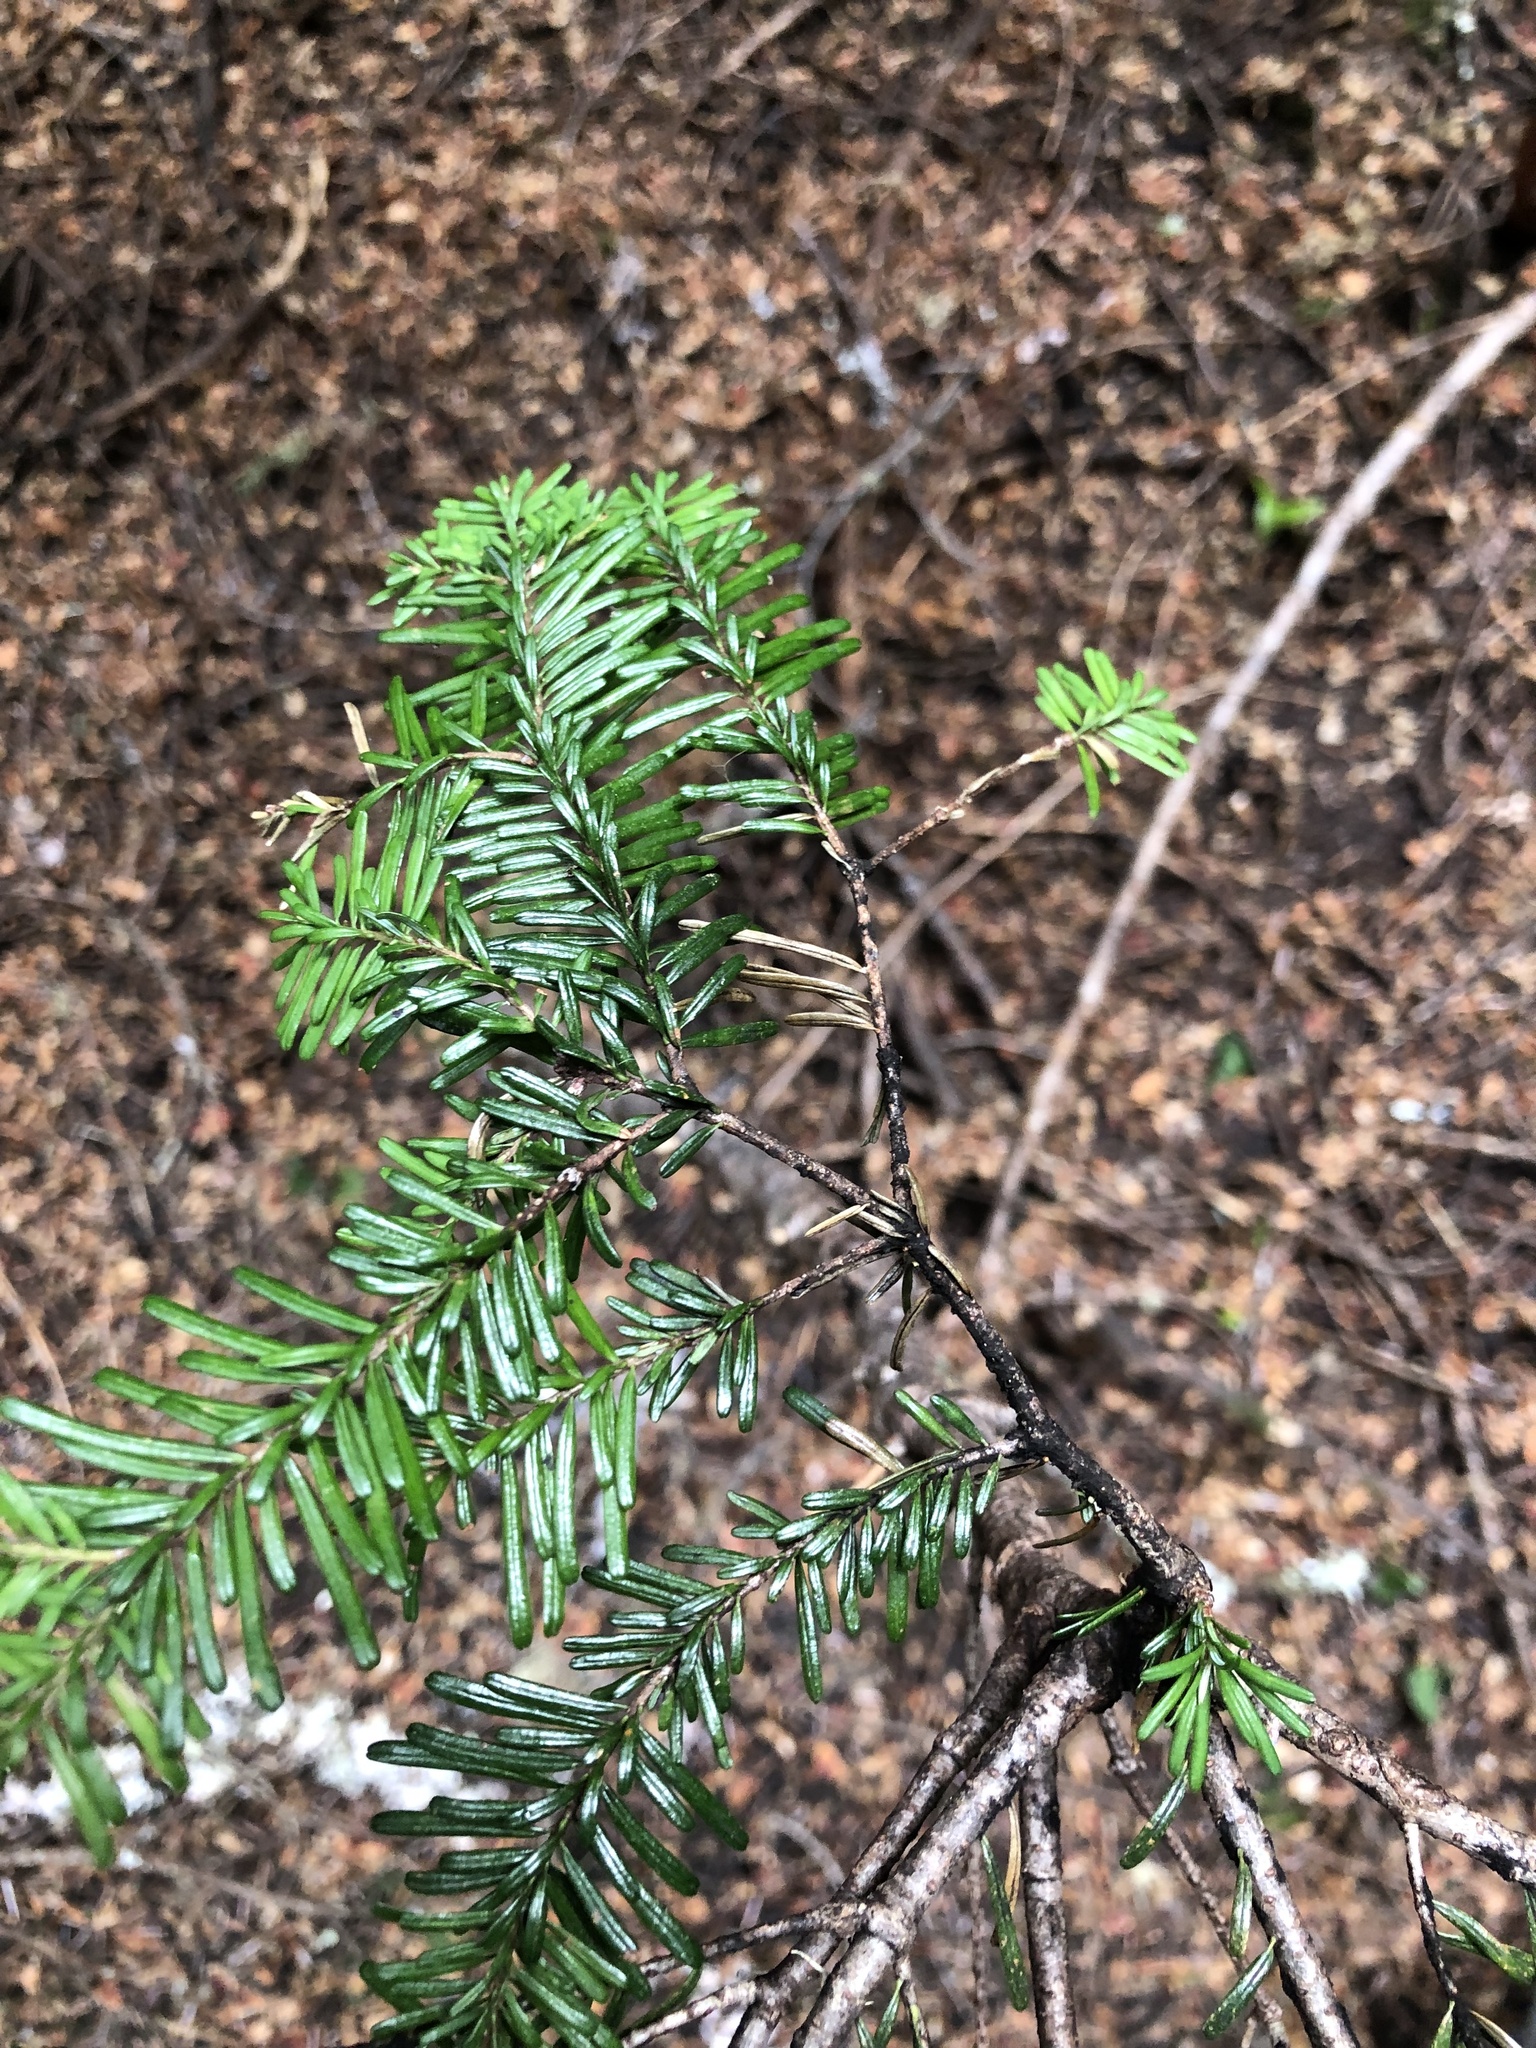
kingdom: Plantae
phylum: Tracheophyta
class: Pinopsida
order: Pinales
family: Pinaceae
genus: Abies
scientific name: Abies amabilis
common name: Pacific silver fir
